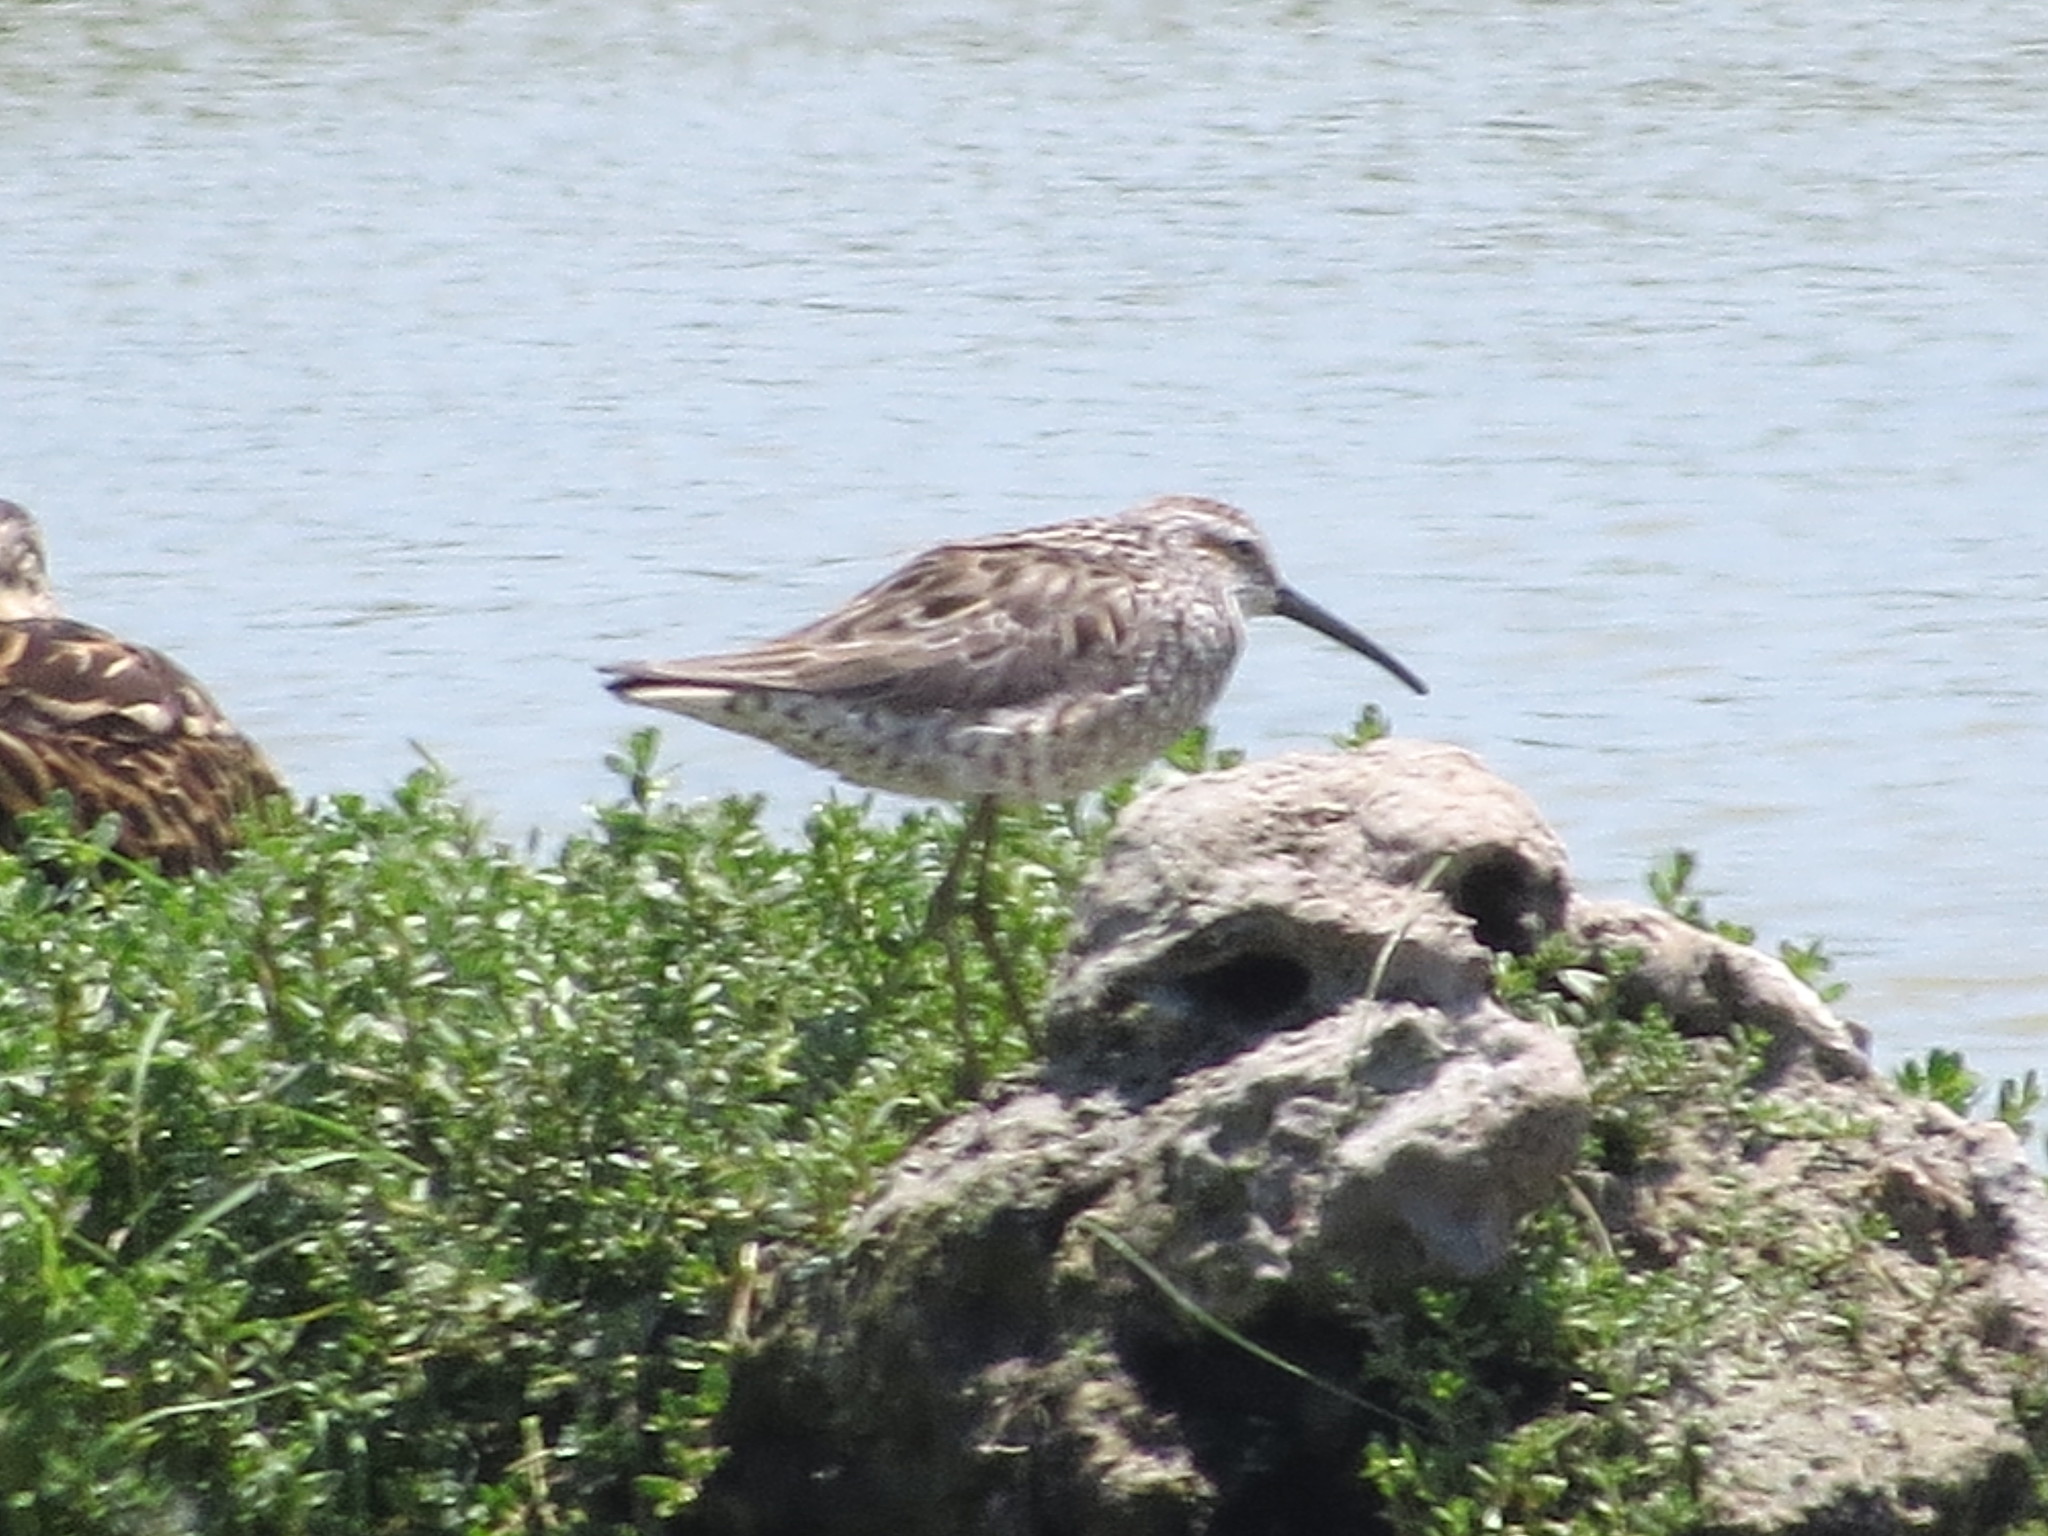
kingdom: Animalia
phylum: Chordata
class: Aves
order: Charadriiformes
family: Scolopacidae
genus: Calidris
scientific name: Calidris himantopus
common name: Stilt sandpiper
